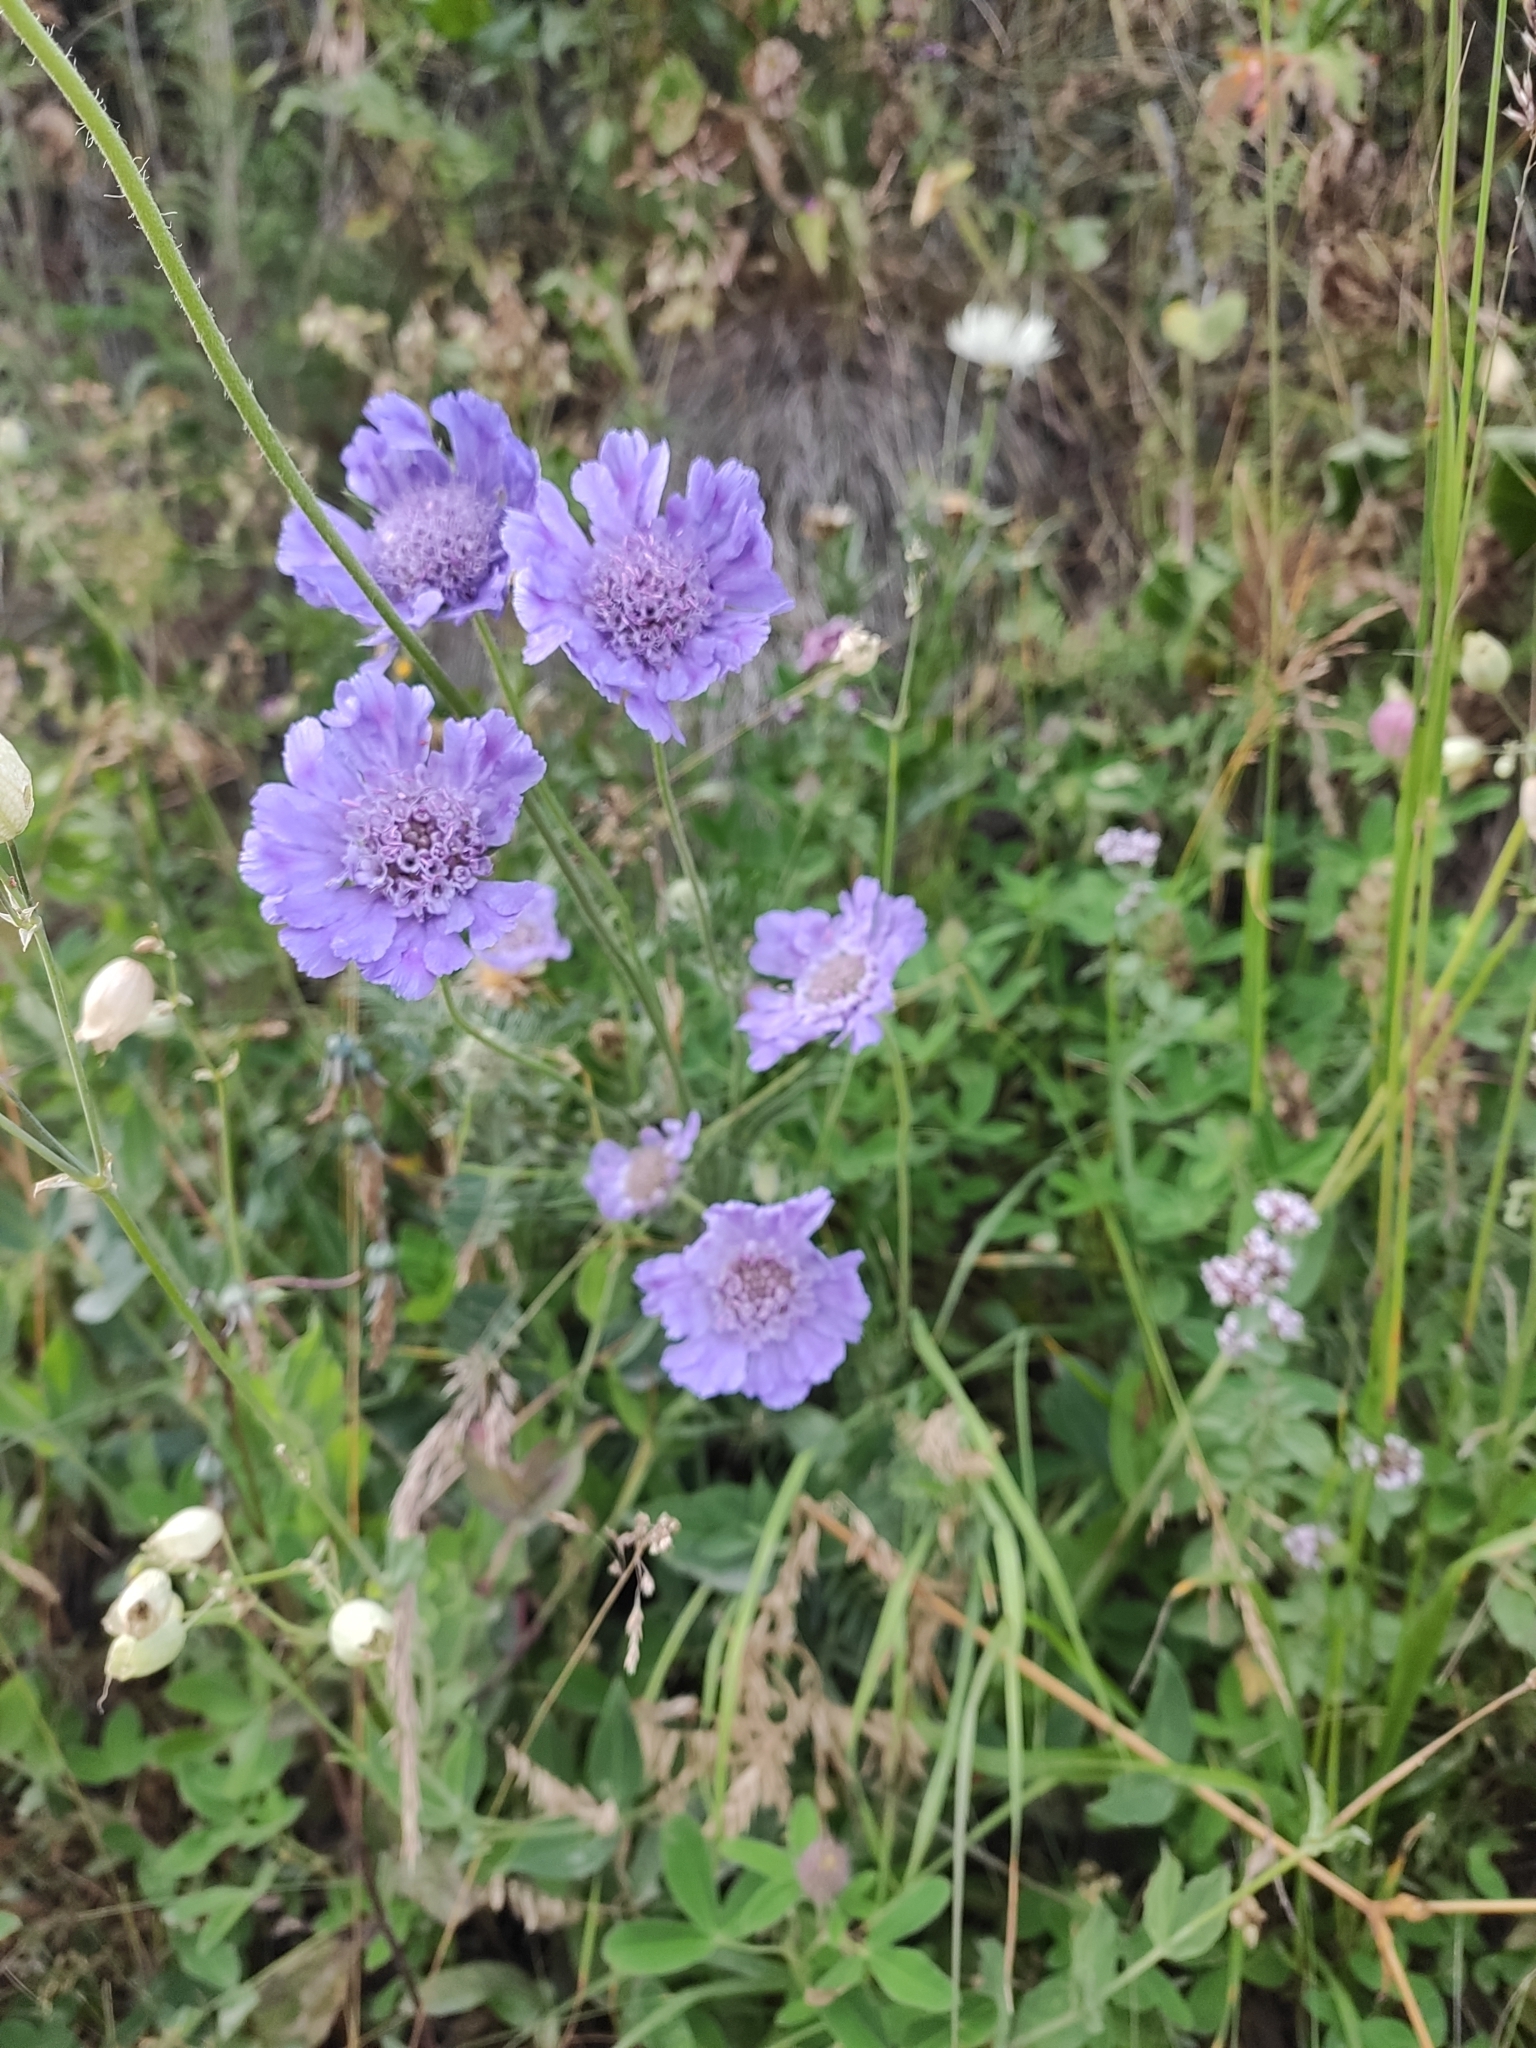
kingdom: Plantae
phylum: Tracheophyta
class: Magnoliopsida
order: Dipsacales
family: Caprifoliaceae
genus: Lomelosia
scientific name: Lomelosia caucasica
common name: Pincushion-flower
